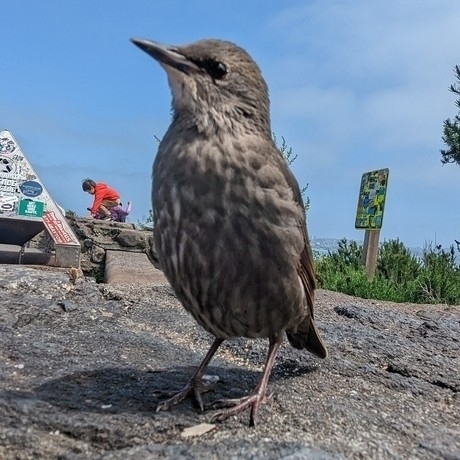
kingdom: Animalia
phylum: Chordata
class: Aves
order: Passeriformes
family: Sturnidae
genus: Sturnus
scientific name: Sturnus vulgaris
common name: Common starling
